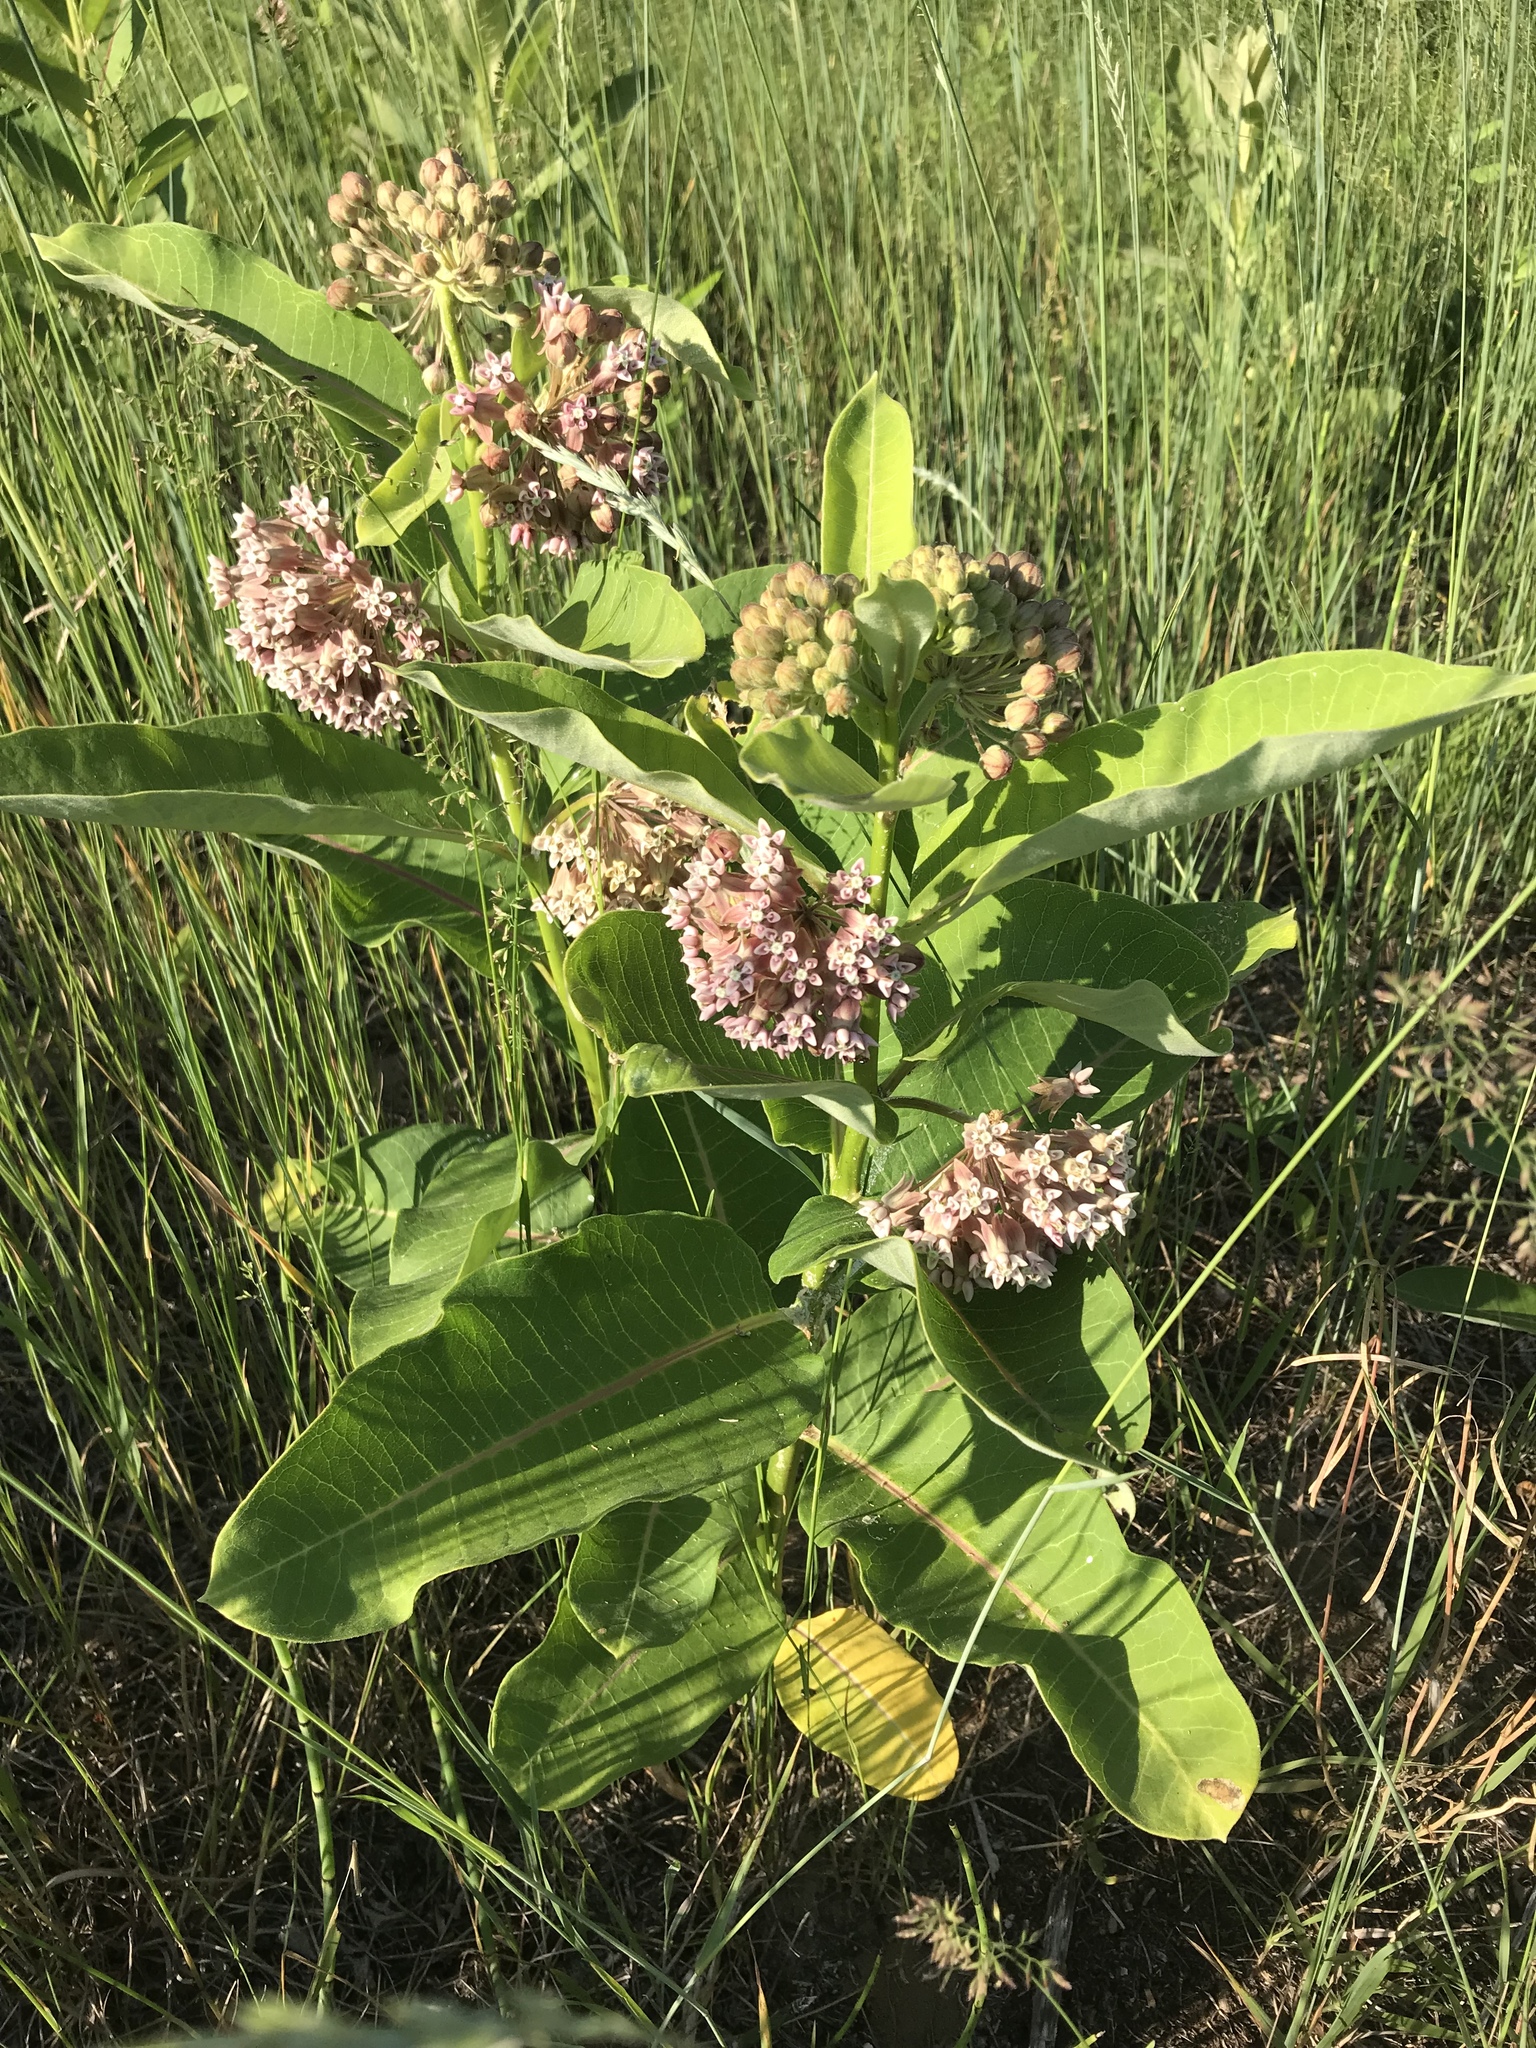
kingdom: Plantae
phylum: Tracheophyta
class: Magnoliopsida
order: Gentianales
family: Apocynaceae
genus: Asclepias
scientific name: Asclepias syriaca
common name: Common milkweed
